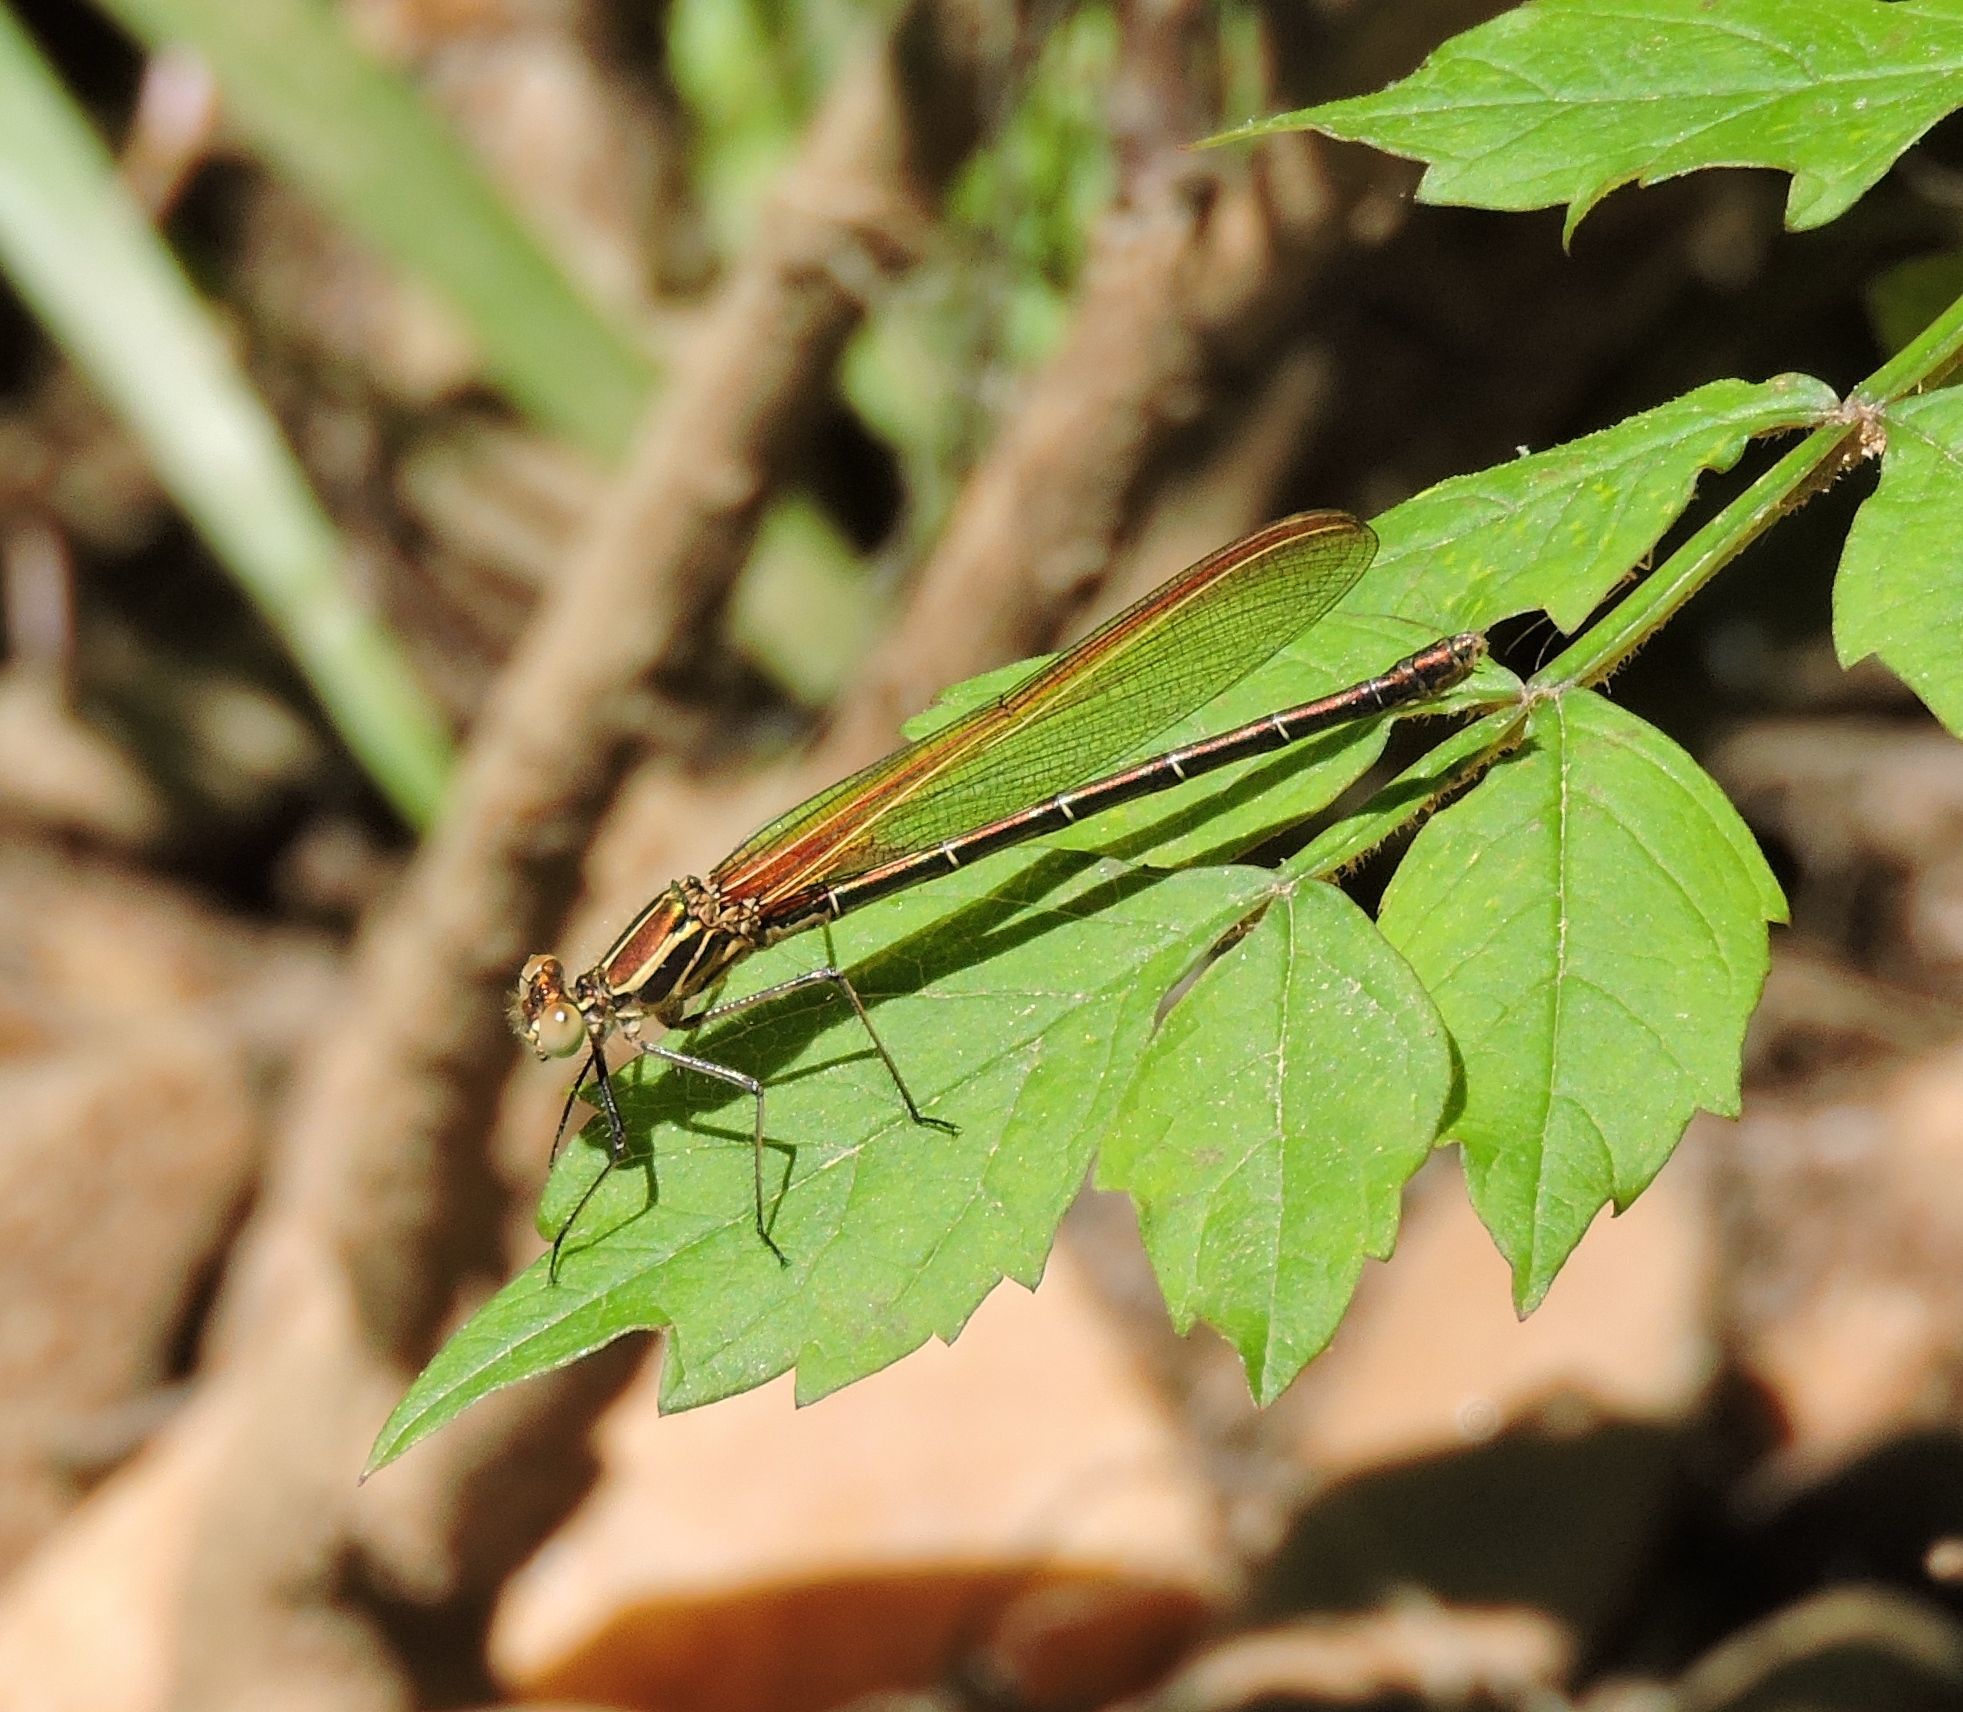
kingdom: Animalia
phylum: Arthropoda
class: Insecta
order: Odonata
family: Calopterygidae
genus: Hetaerina
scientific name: Hetaerina americana
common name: American rubyspot
